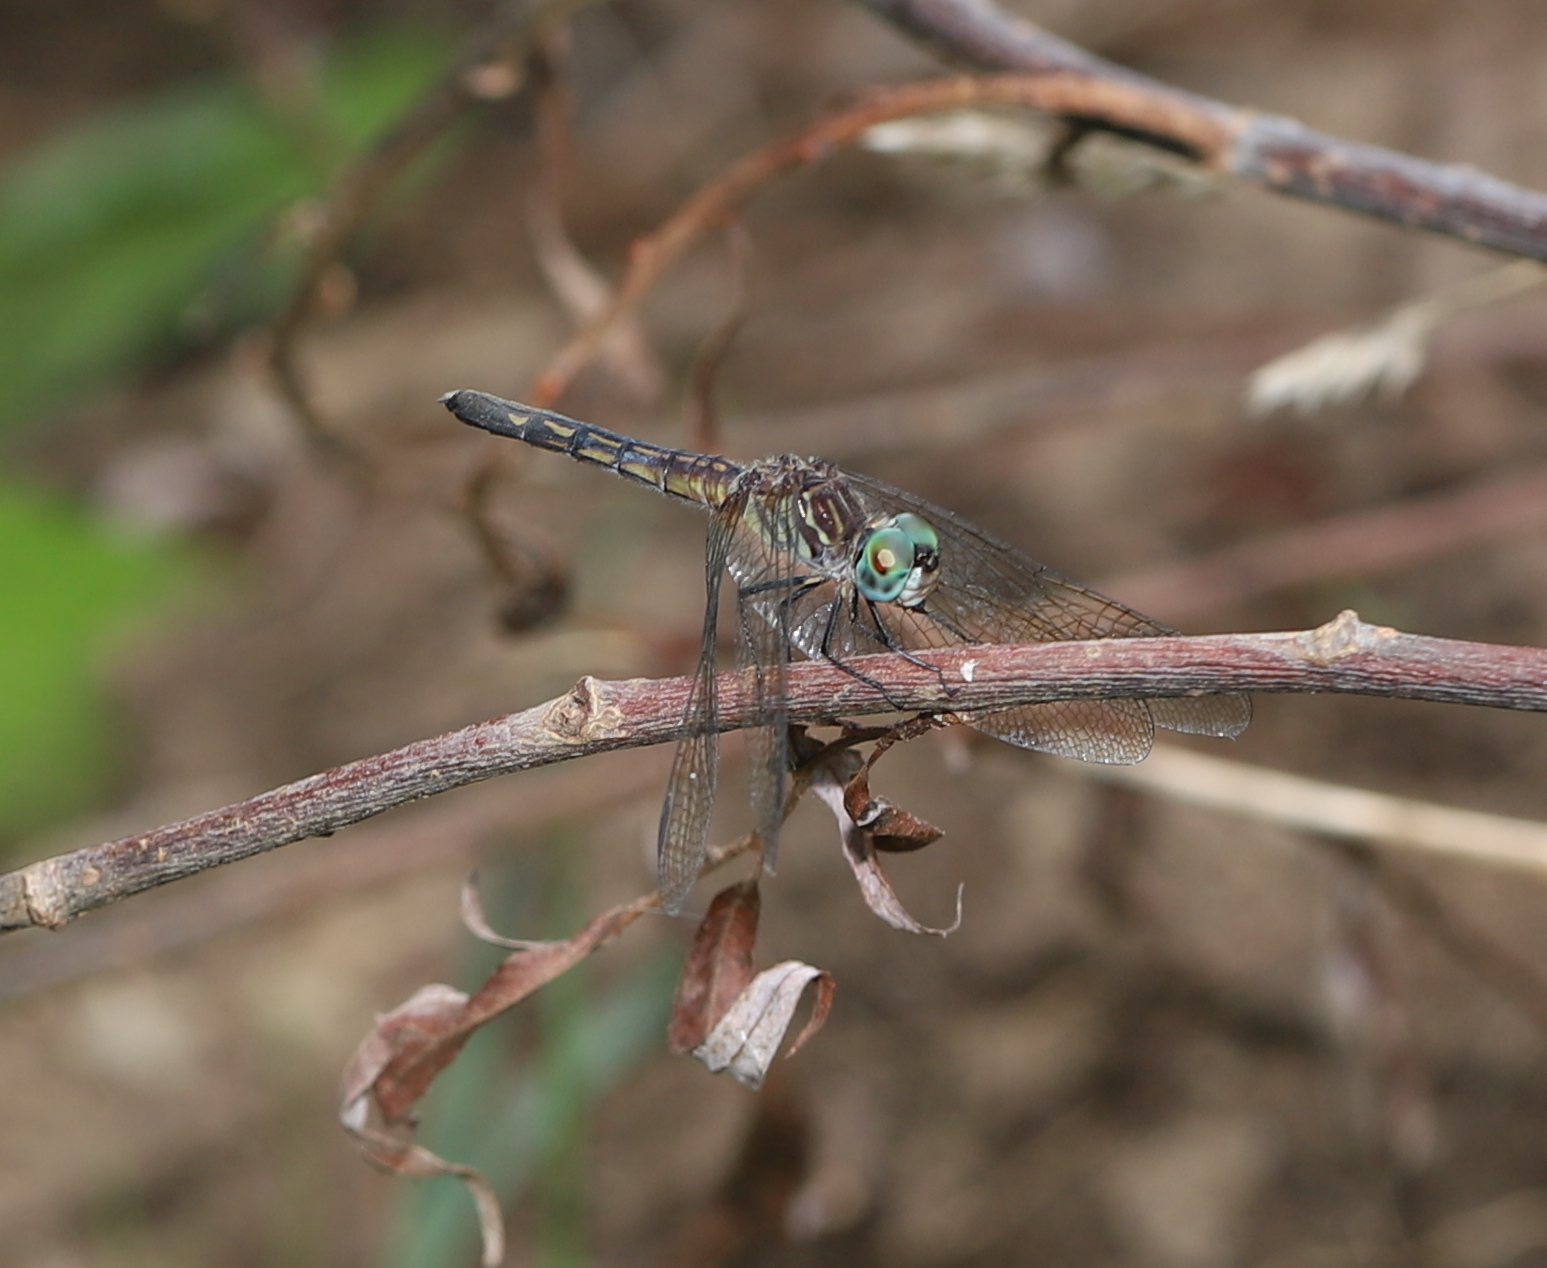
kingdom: Animalia
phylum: Arthropoda
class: Insecta
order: Odonata
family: Libellulidae
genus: Pachydiplax
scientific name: Pachydiplax longipennis
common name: Blue dasher
